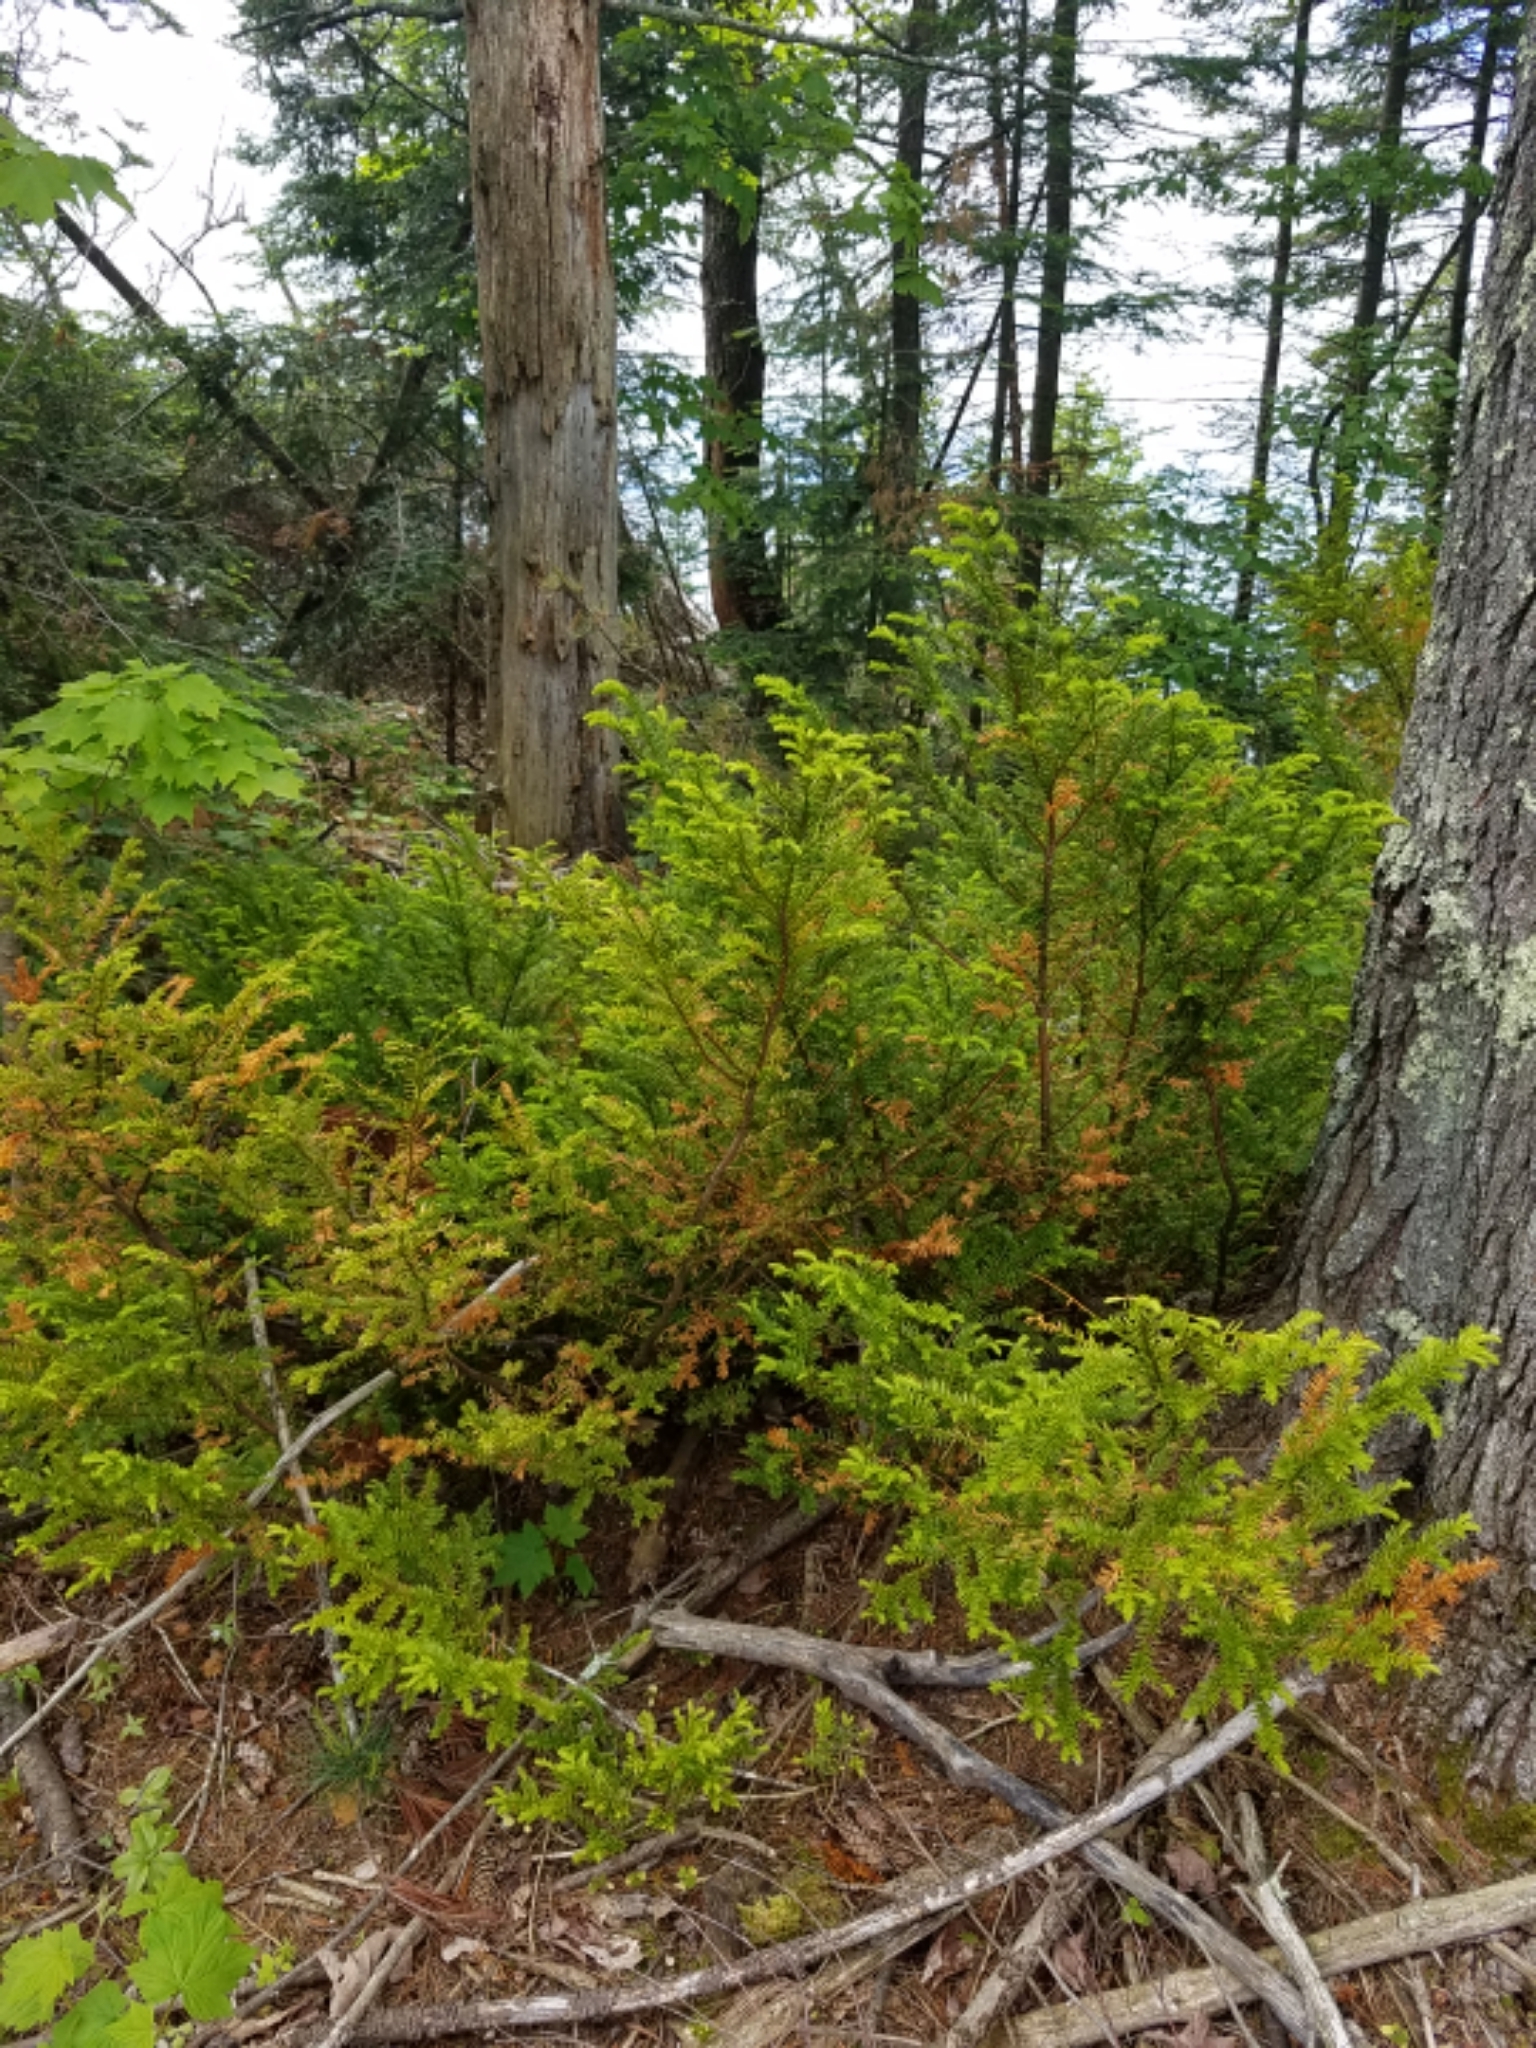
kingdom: Plantae
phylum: Tracheophyta
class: Pinopsida
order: Pinales
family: Taxaceae
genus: Taxus
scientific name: Taxus canadensis
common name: American yew
